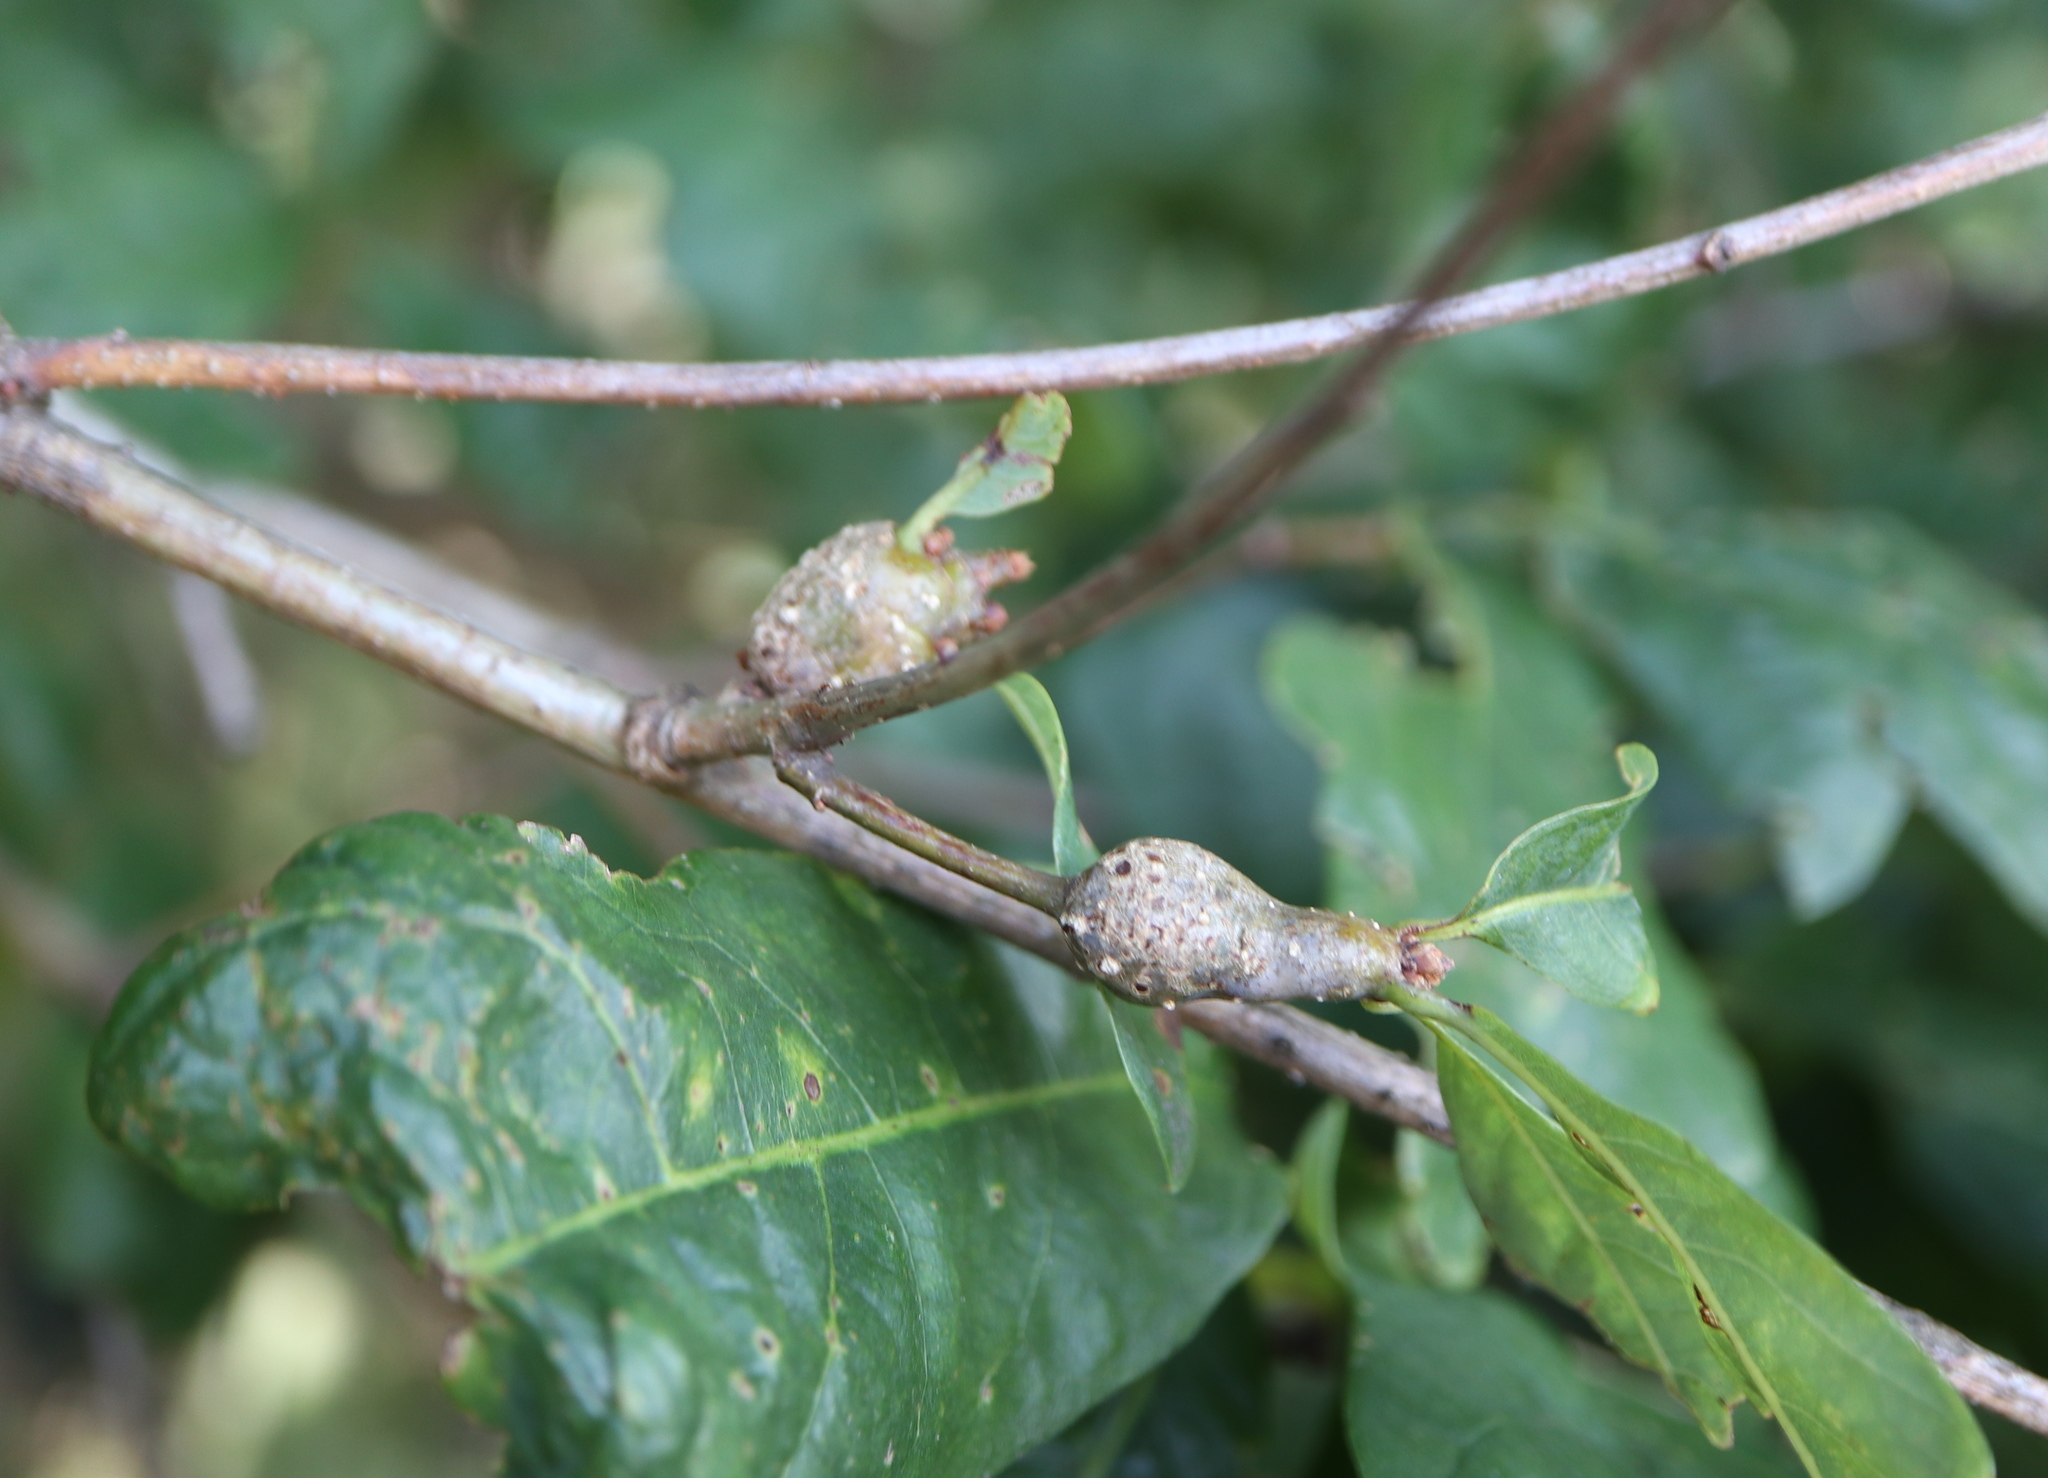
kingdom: Animalia
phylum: Arthropoda
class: Insecta
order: Hymenoptera
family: Cynipidae
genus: Callirhytis
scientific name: Callirhytis clavula
